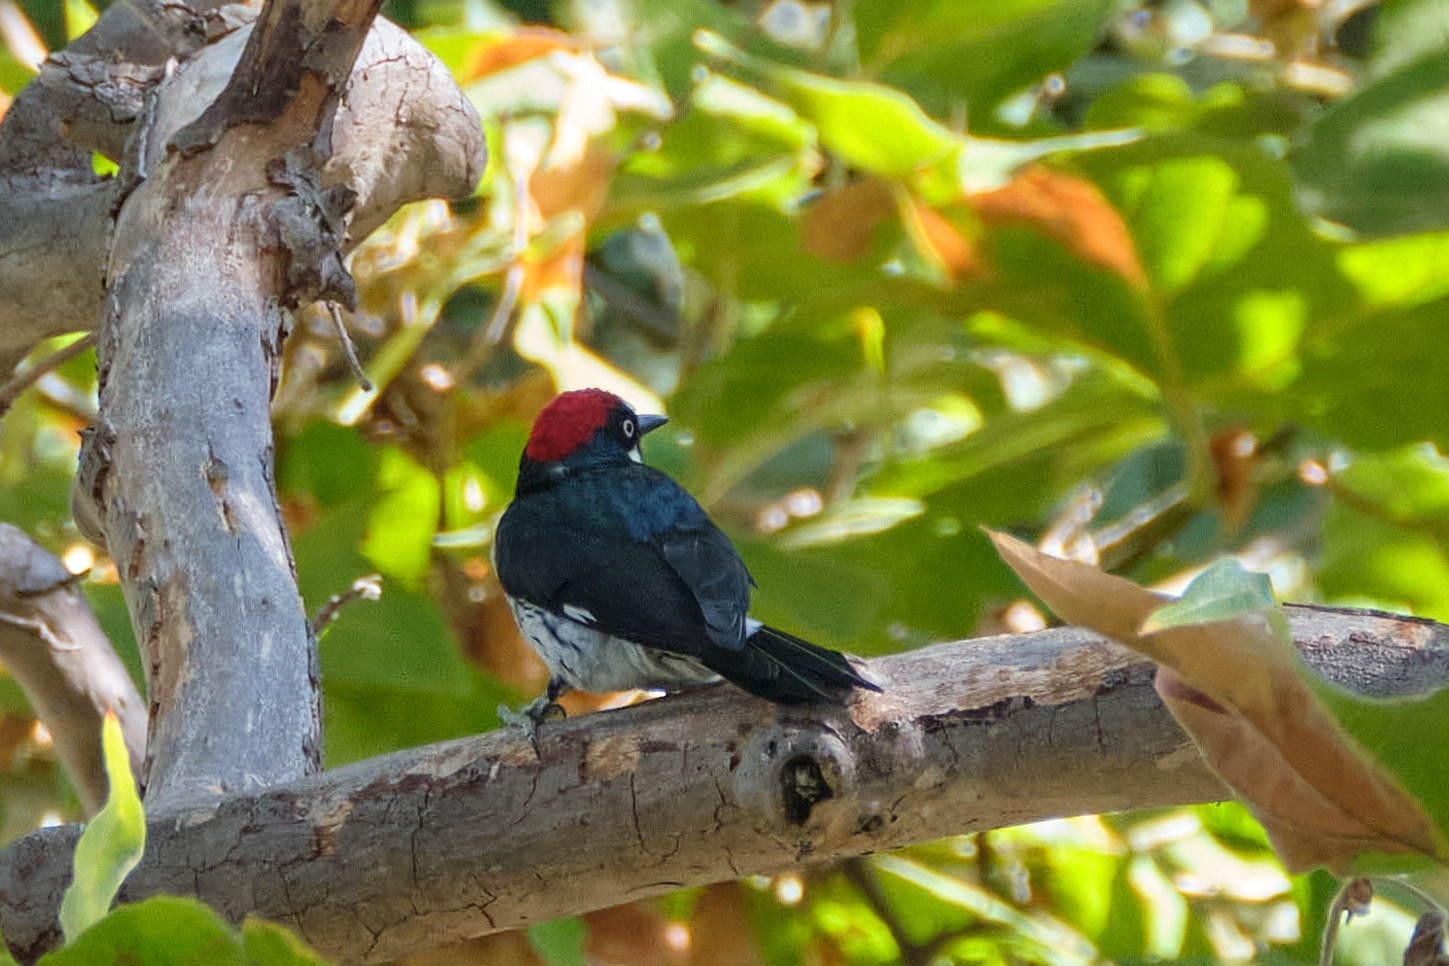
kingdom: Animalia
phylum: Chordata
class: Aves
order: Piciformes
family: Picidae
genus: Melanerpes
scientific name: Melanerpes formicivorus
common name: Acorn woodpecker
